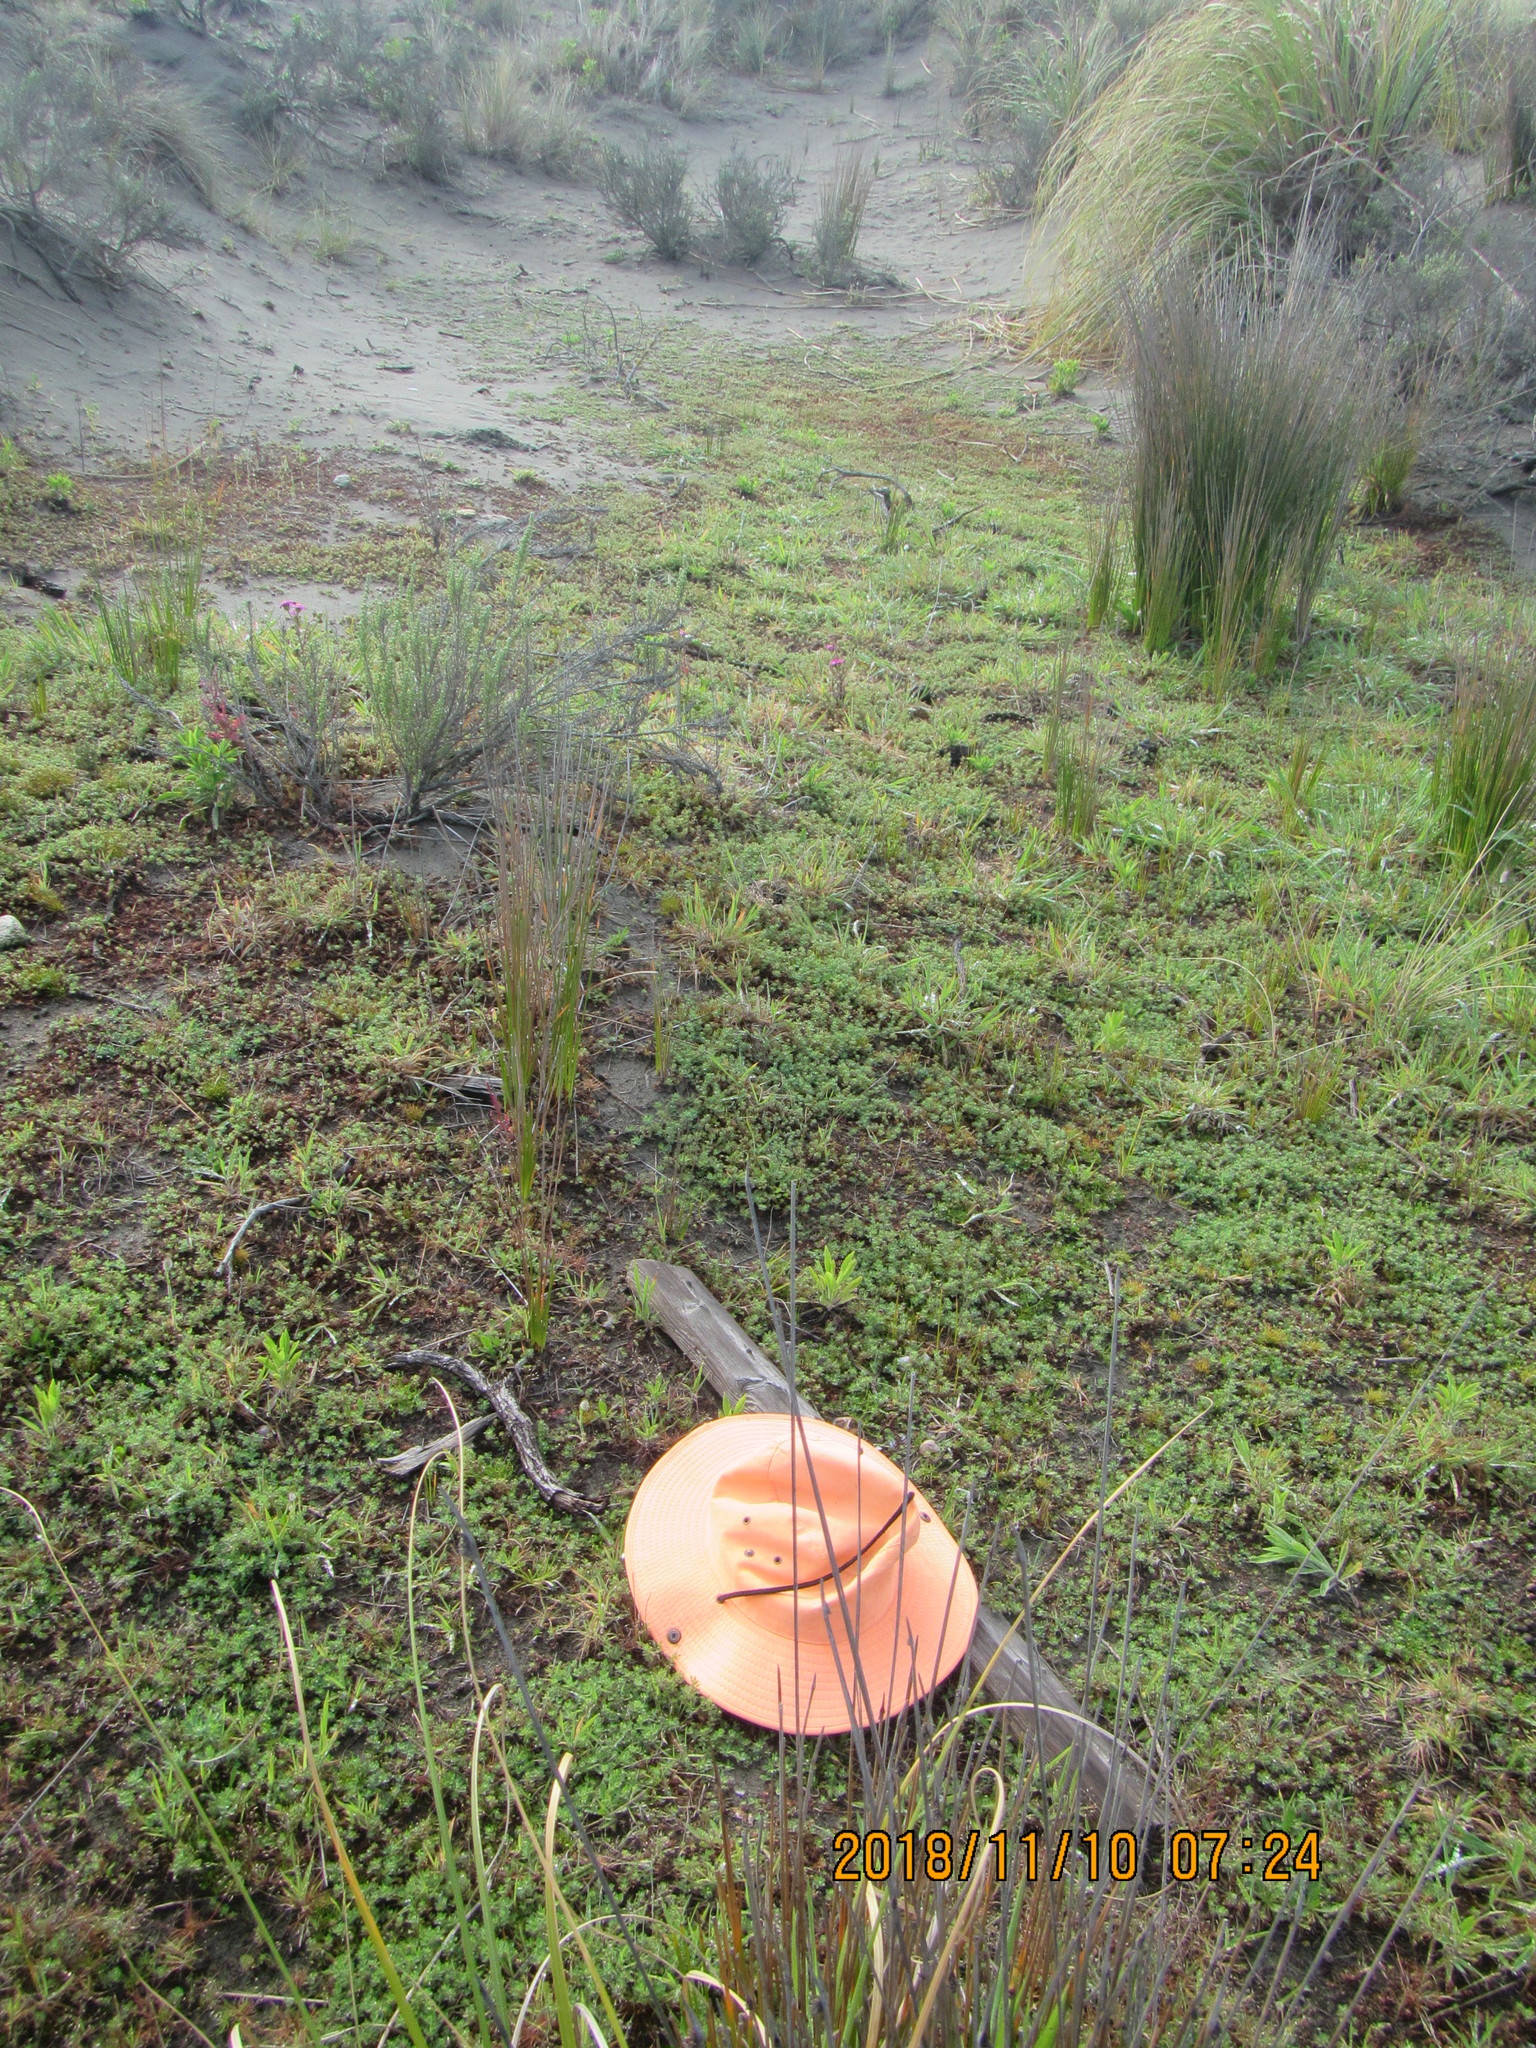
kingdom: Animalia
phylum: Arthropoda
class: Malacostraca
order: Isopoda
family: Porcellionidae
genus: Porcellio
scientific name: Porcellio scaber
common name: Common rough woodlouse
